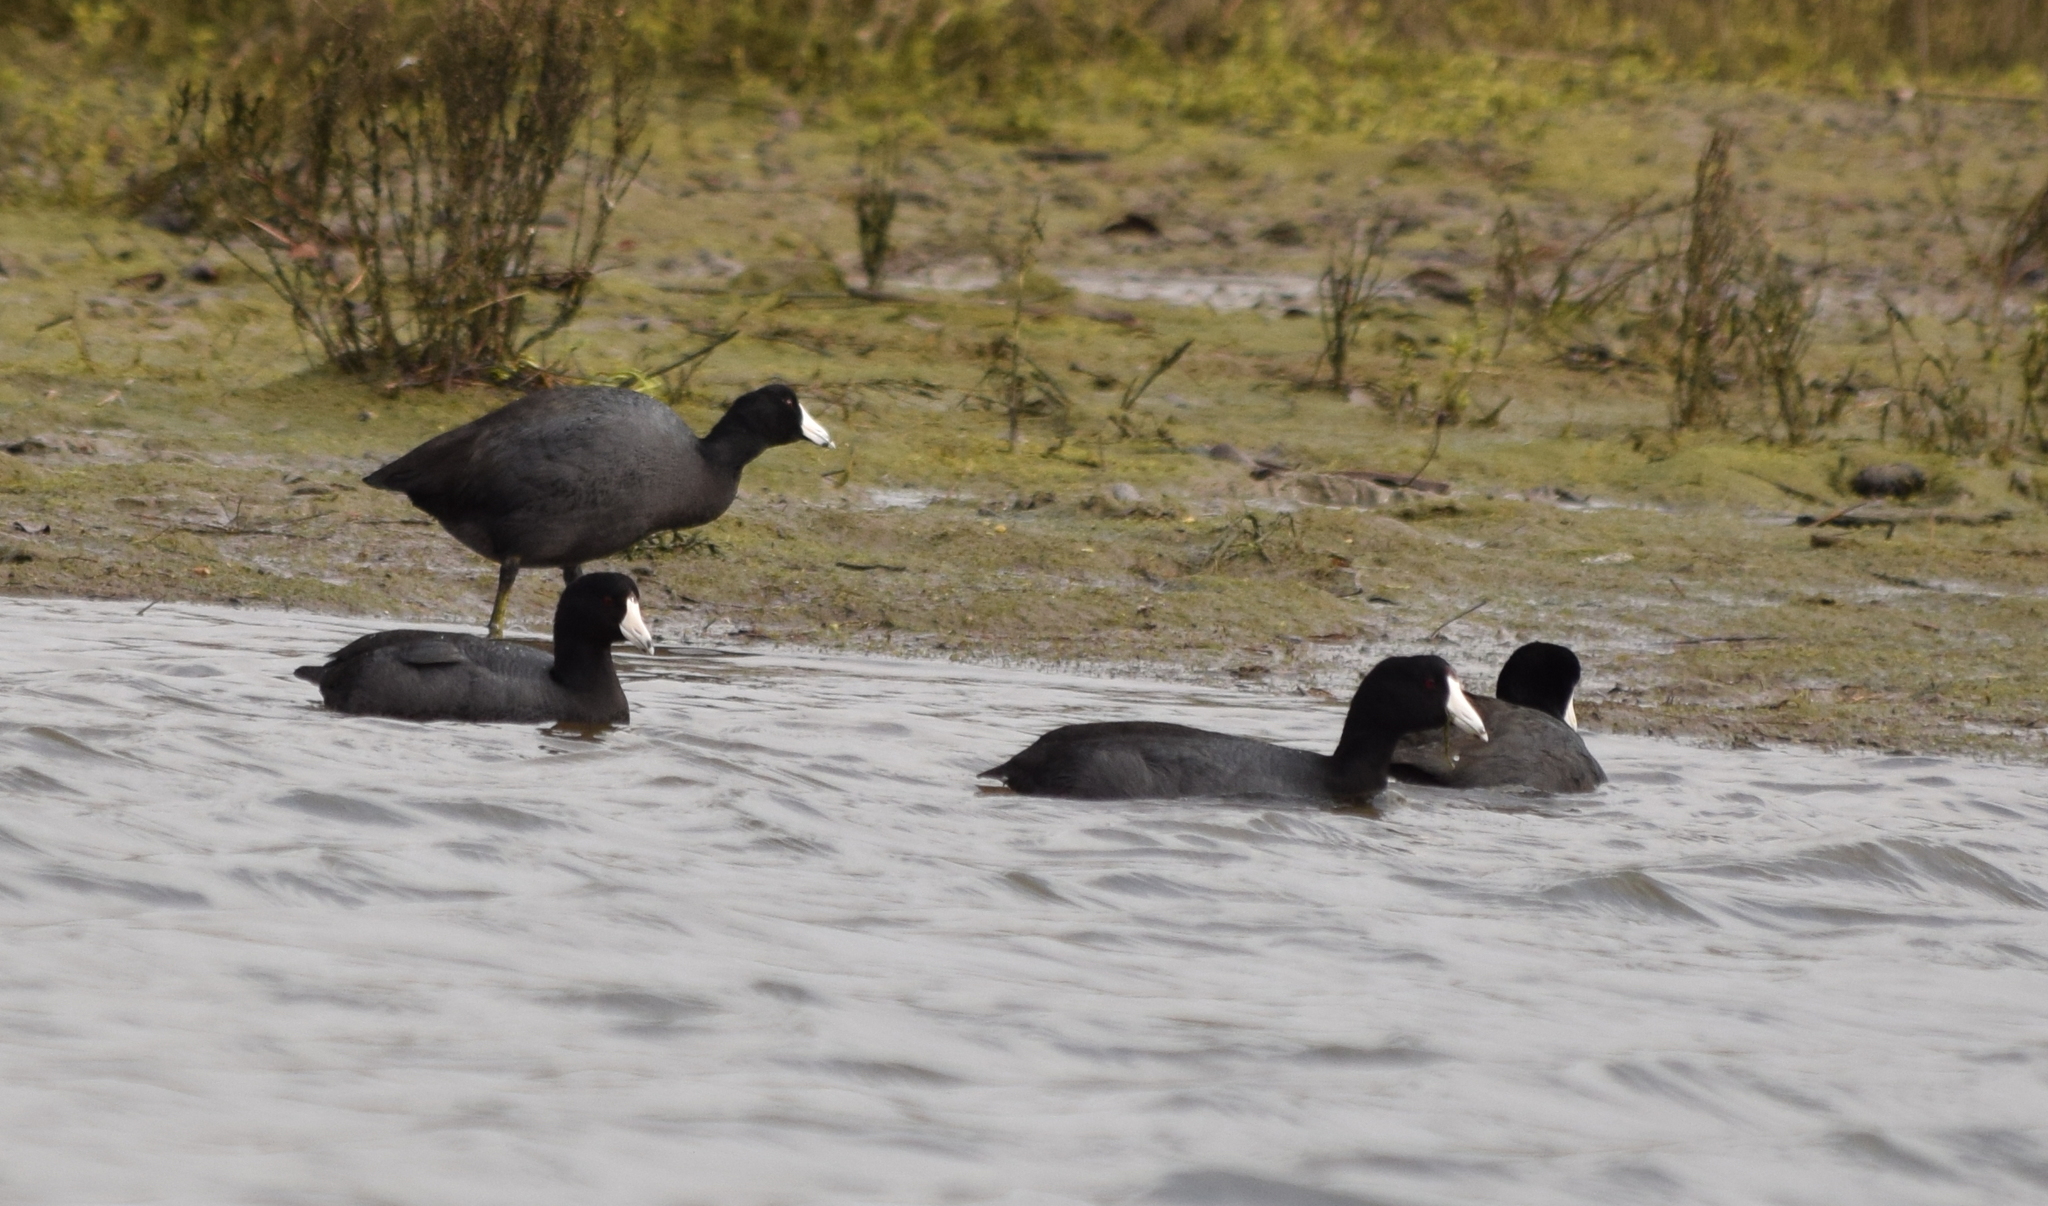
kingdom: Animalia
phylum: Chordata
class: Aves
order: Gruiformes
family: Rallidae
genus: Fulica
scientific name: Fulica americana
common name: American coot
